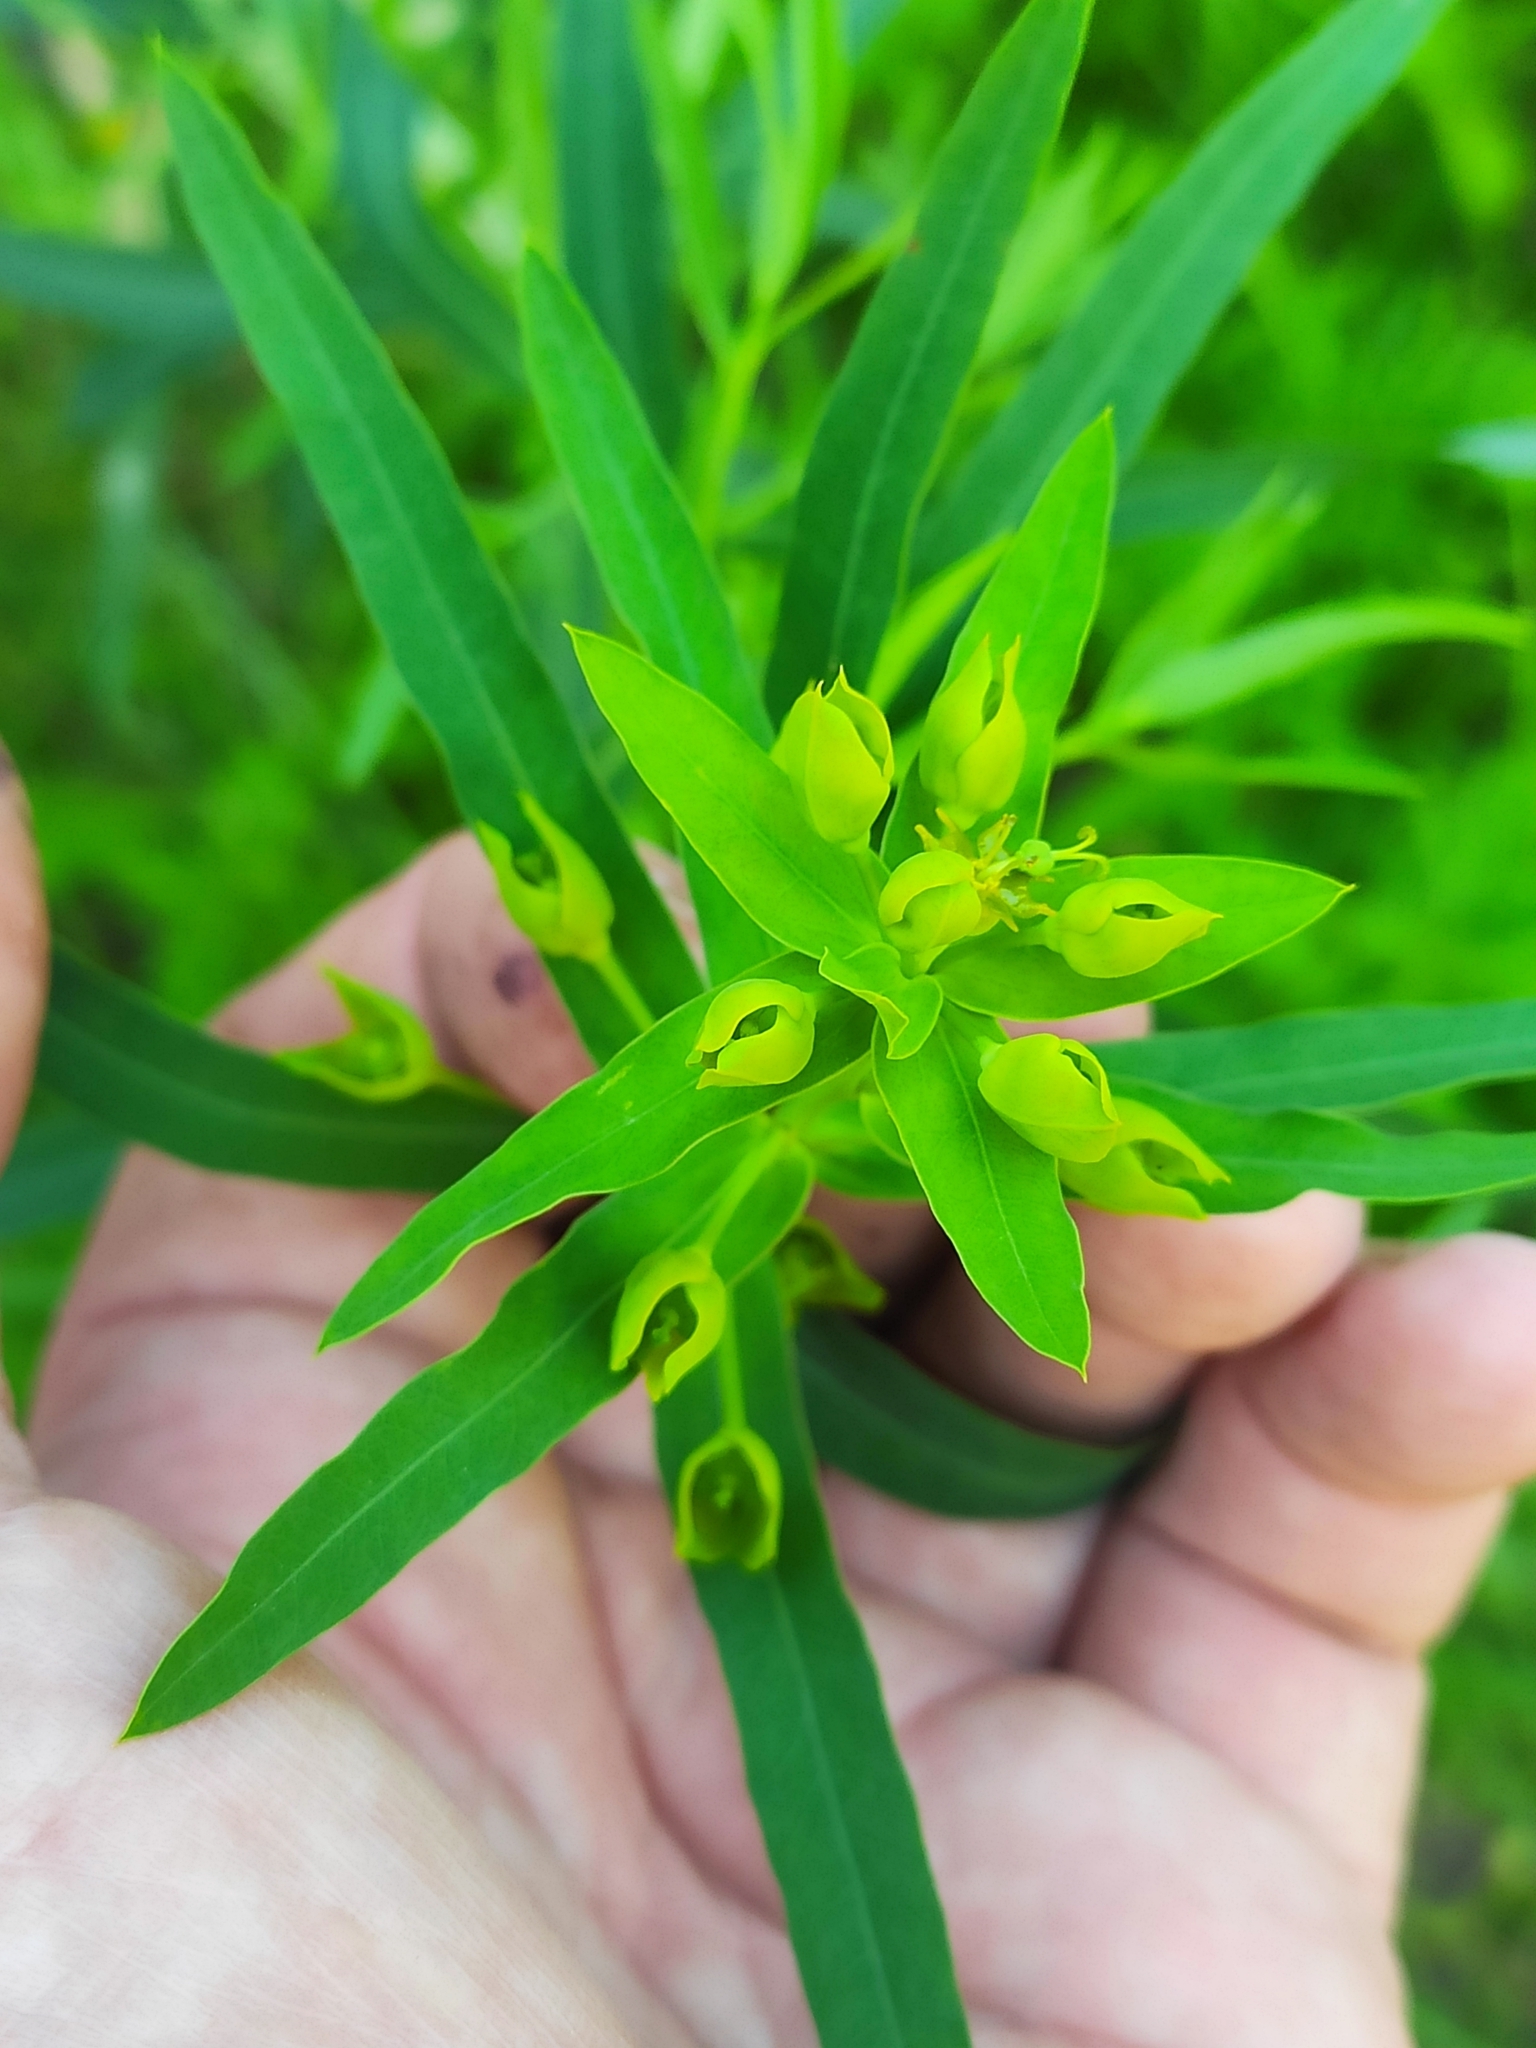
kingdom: Plantae
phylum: Tracheophyta
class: Magnoliopsida
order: Malpighiales
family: Euphorbiaceae
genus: Euphorbia
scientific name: Euphorbia virgata
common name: Leafy spurge
